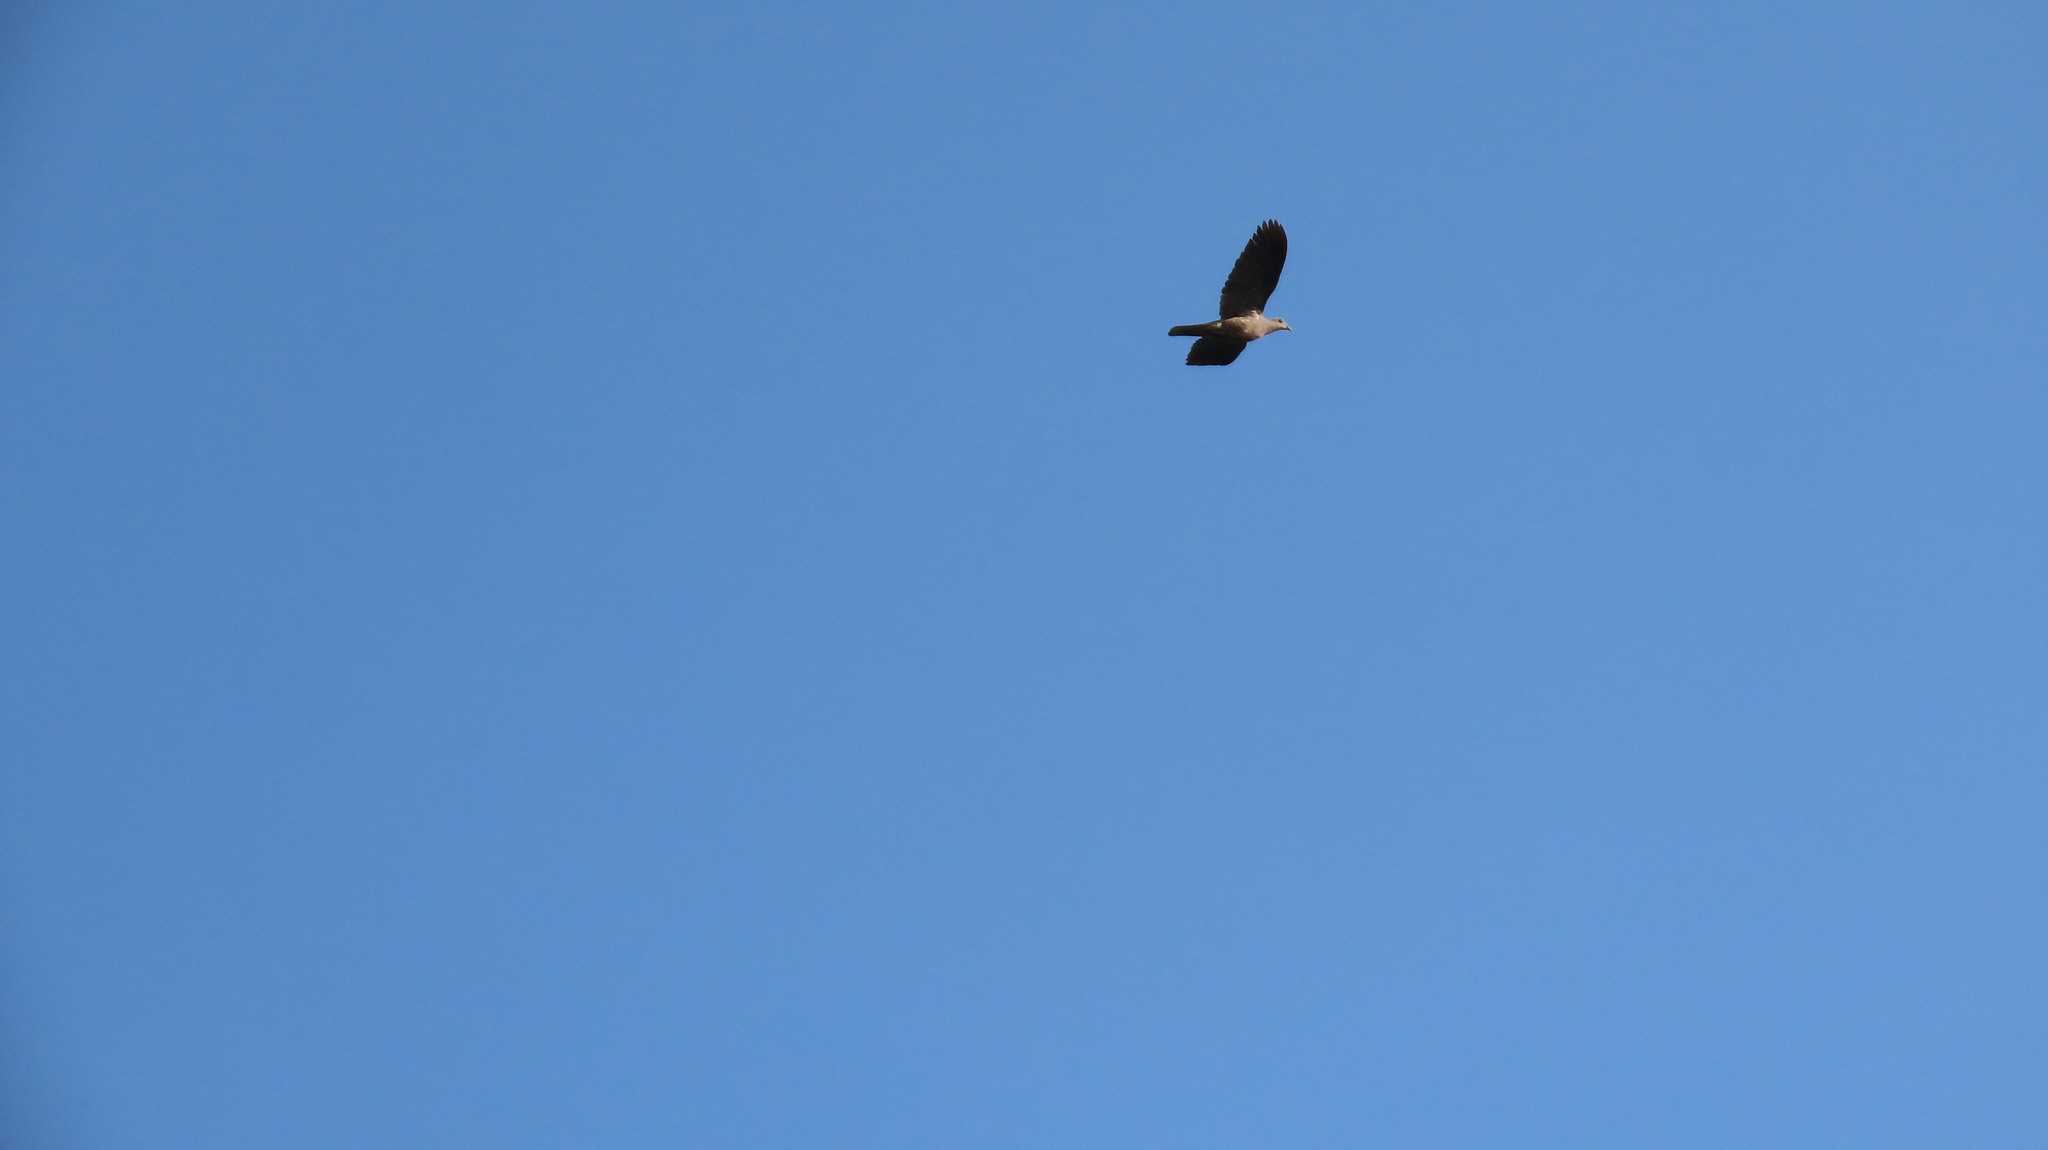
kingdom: Animalia
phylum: Chordata
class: Aves
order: Columbiformes
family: Columbidae
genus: Ducula
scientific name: Ducula badia
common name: Mountain imperial pigeon
